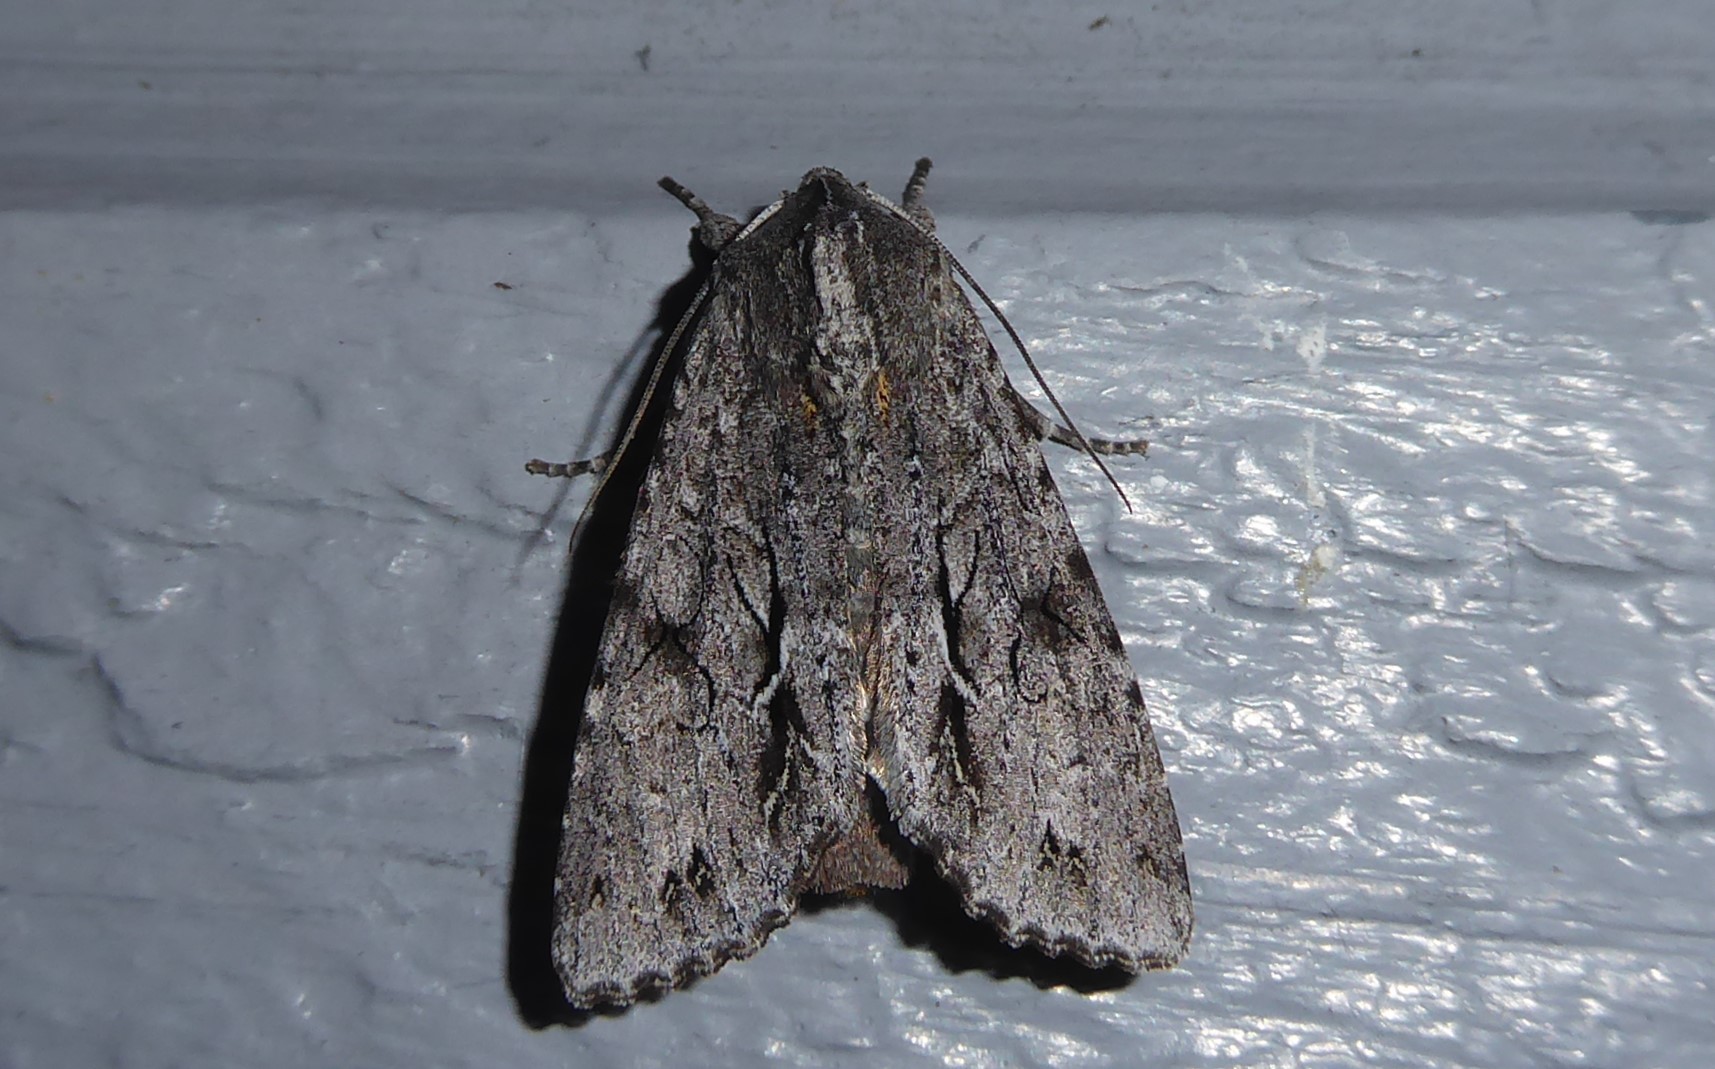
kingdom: Animalia
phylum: Arthropoda
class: Insecta
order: Lepidoptera
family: Noctuidae
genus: Ichneutica
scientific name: Ichneutica
